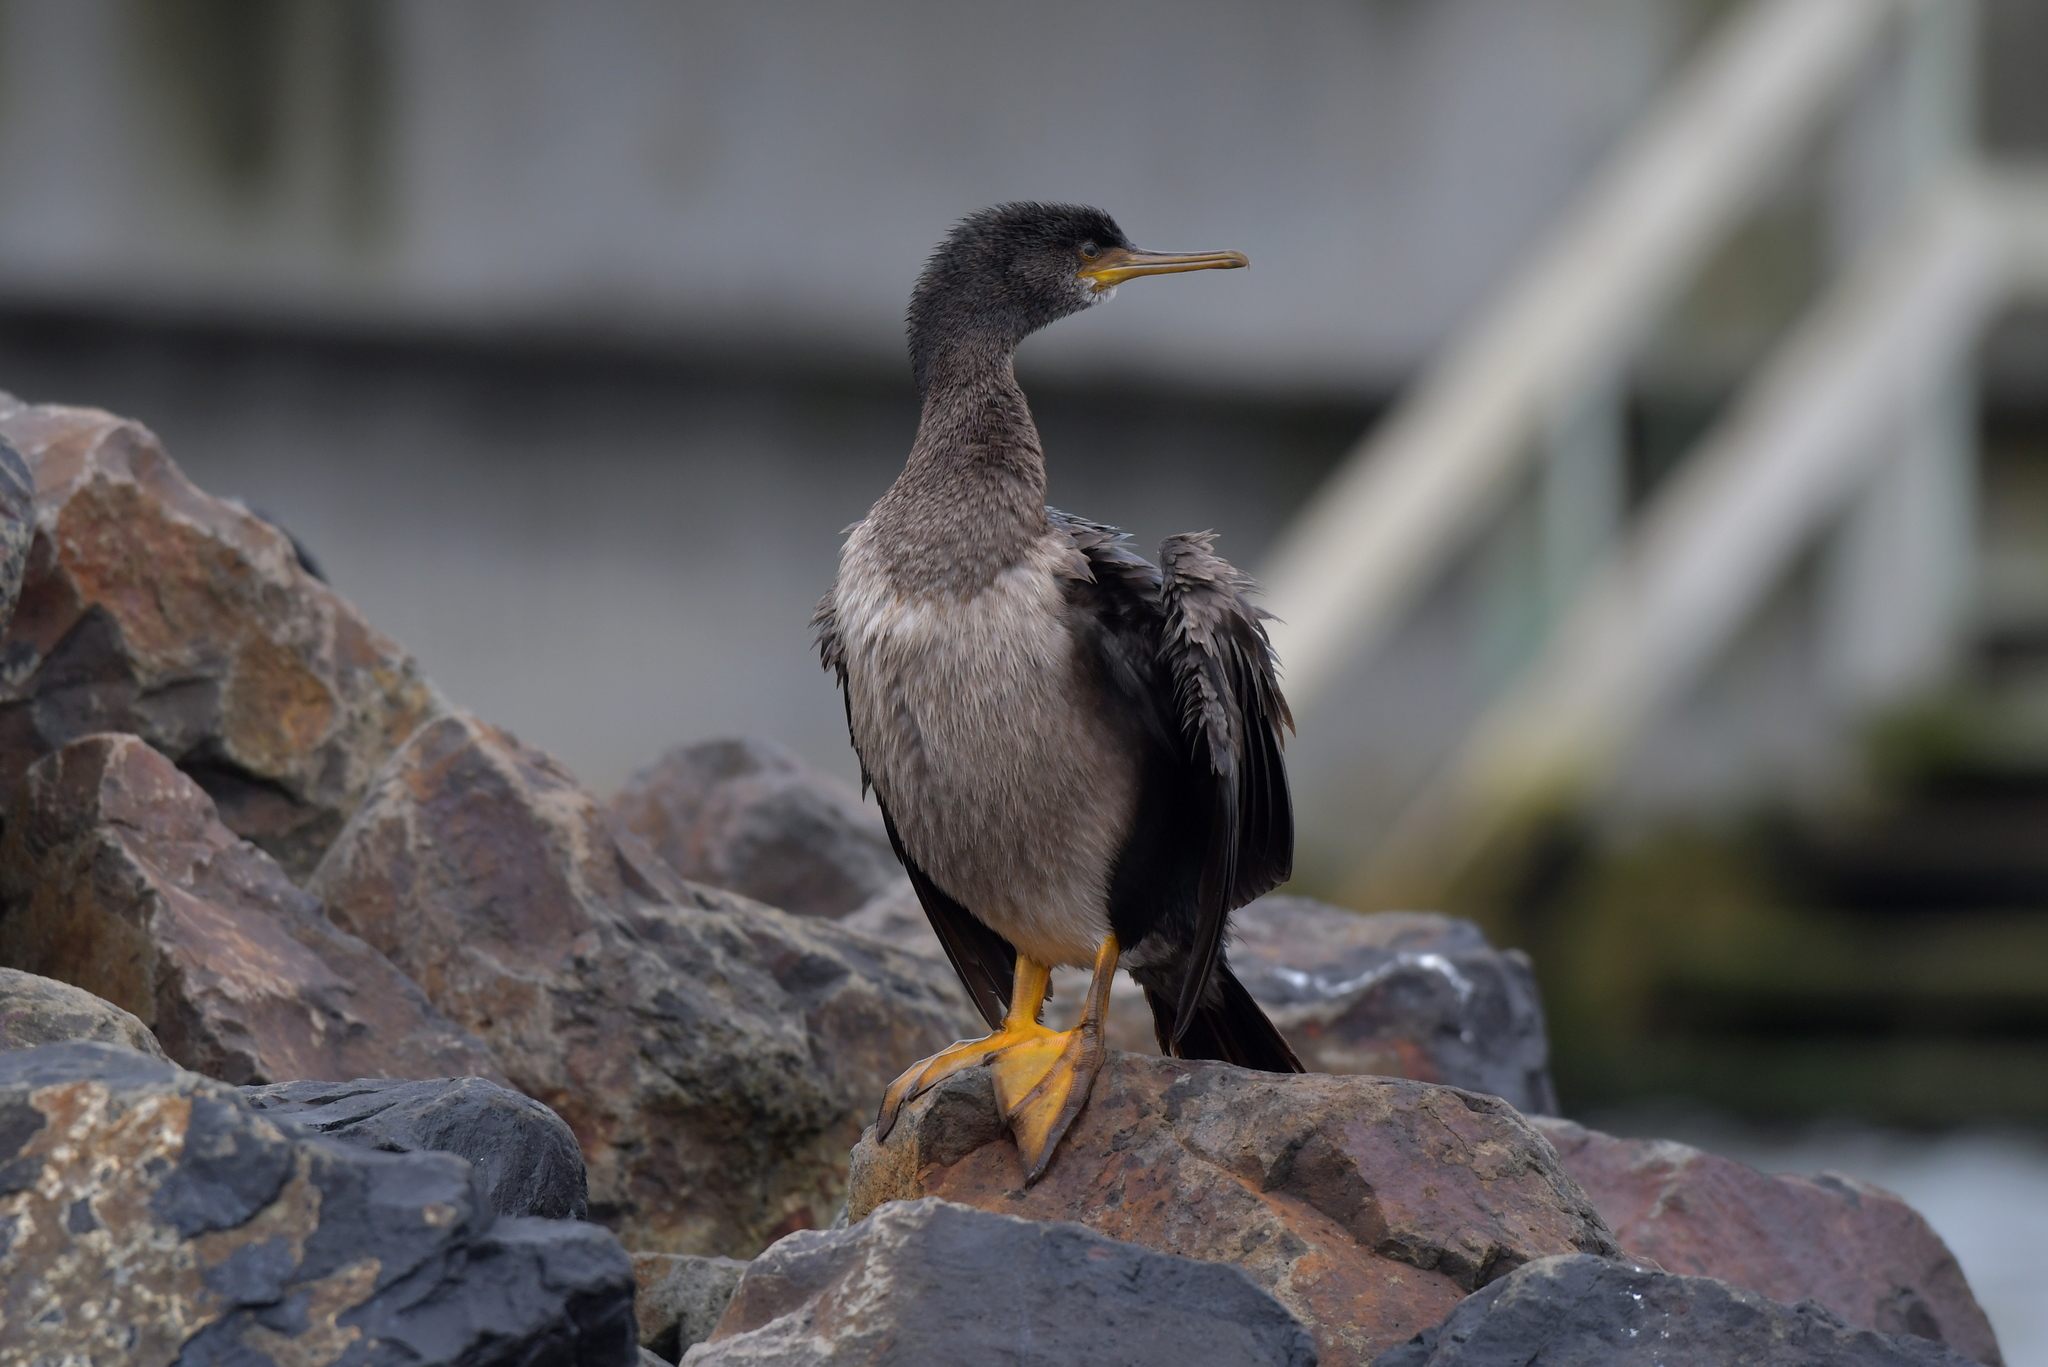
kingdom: Animalia
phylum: Chordata
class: Aves
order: Suliformes
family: Phalacrocoracidae
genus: Phalacrocorax
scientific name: Phalacrocorax featherstoni
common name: Pitt shag
